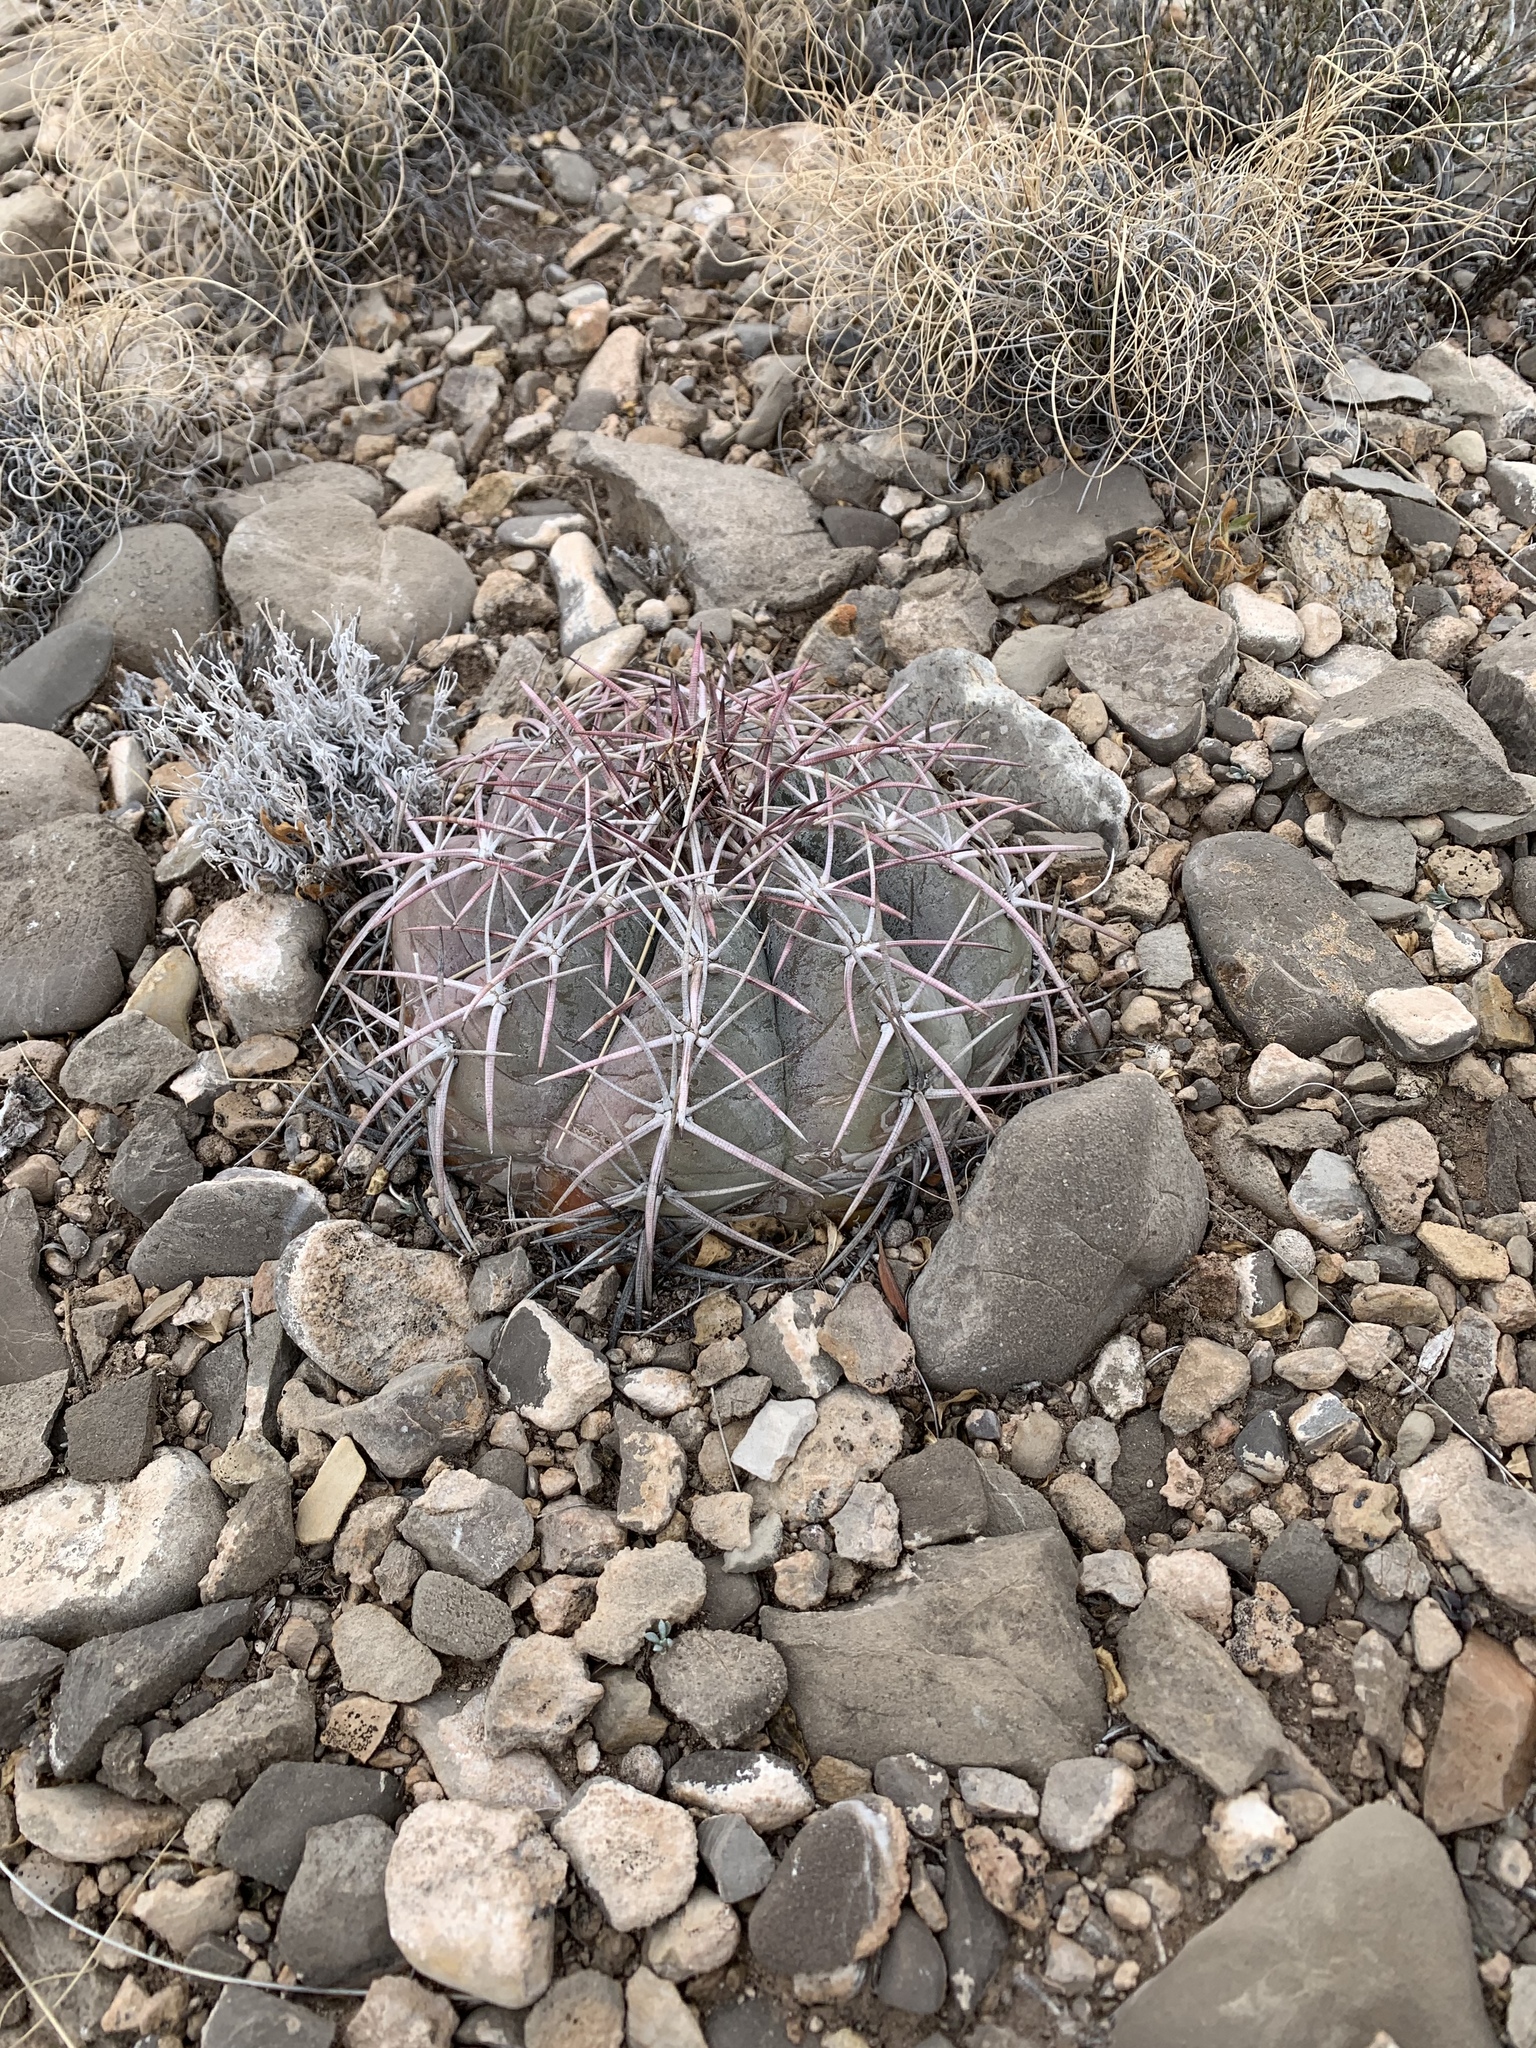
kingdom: Plantae
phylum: Tracheophyta
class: Magnoliopsida
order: Caryophyllales
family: Cactaceae
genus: Echinocactus
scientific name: Echinocactus horizonthalonius
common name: Devilshead
